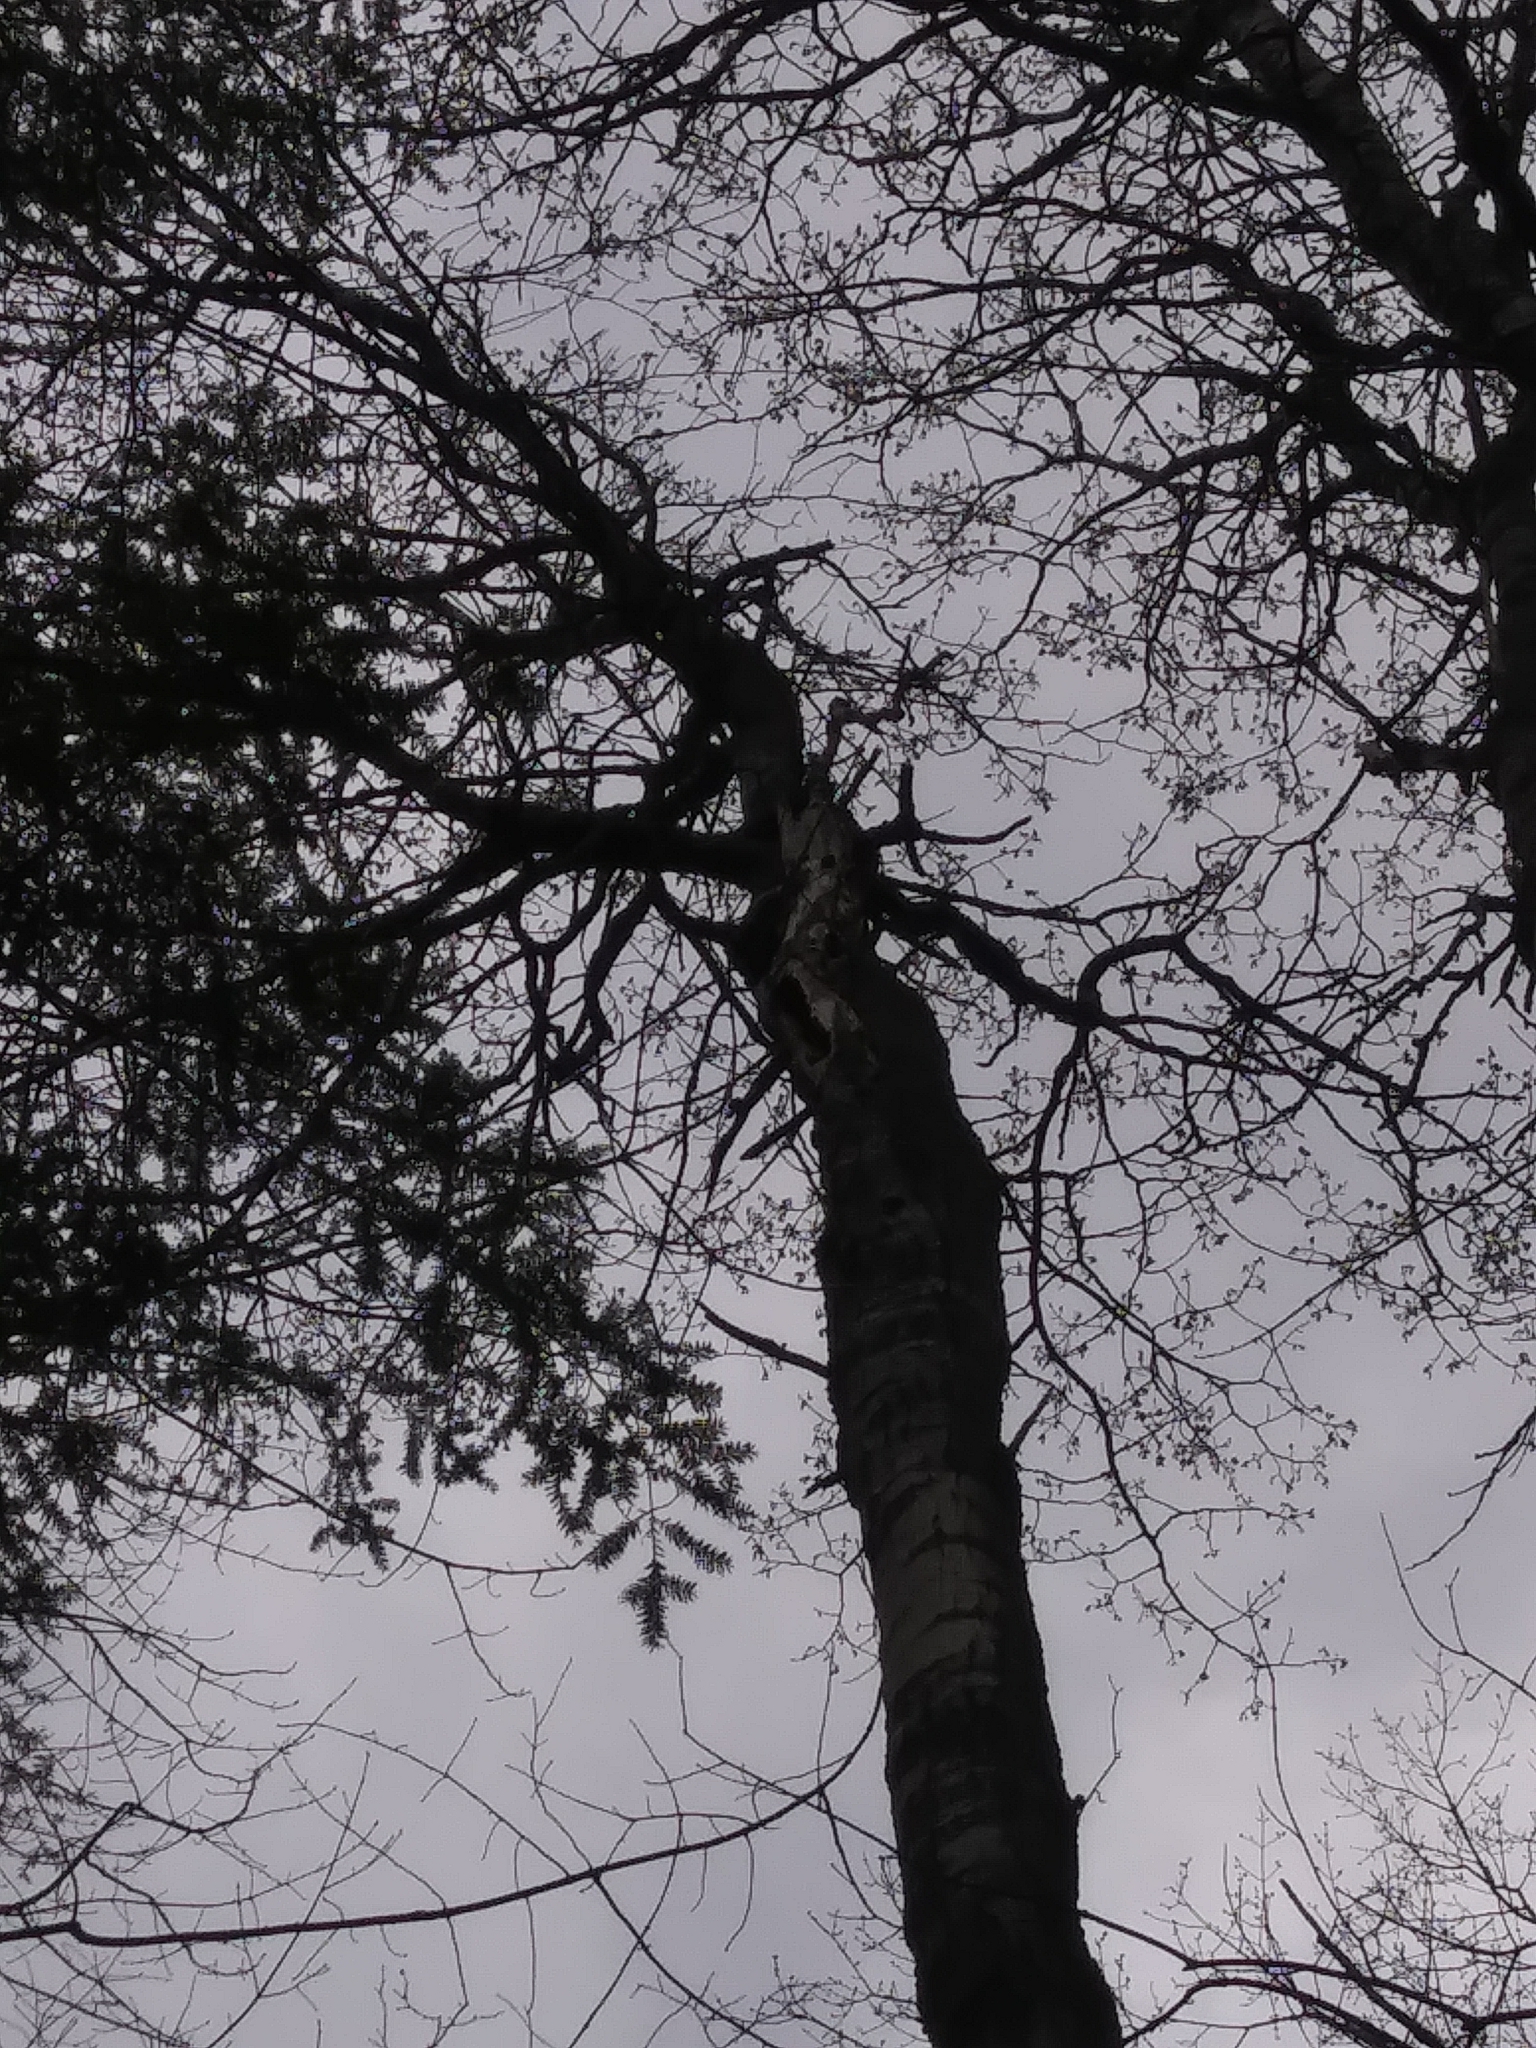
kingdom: Plantae
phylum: Tracheophyta
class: Magnoliopsida
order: Malpighiales
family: Salicaceae
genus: Populus
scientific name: Populus grandidentata
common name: Bigtooth aspen
